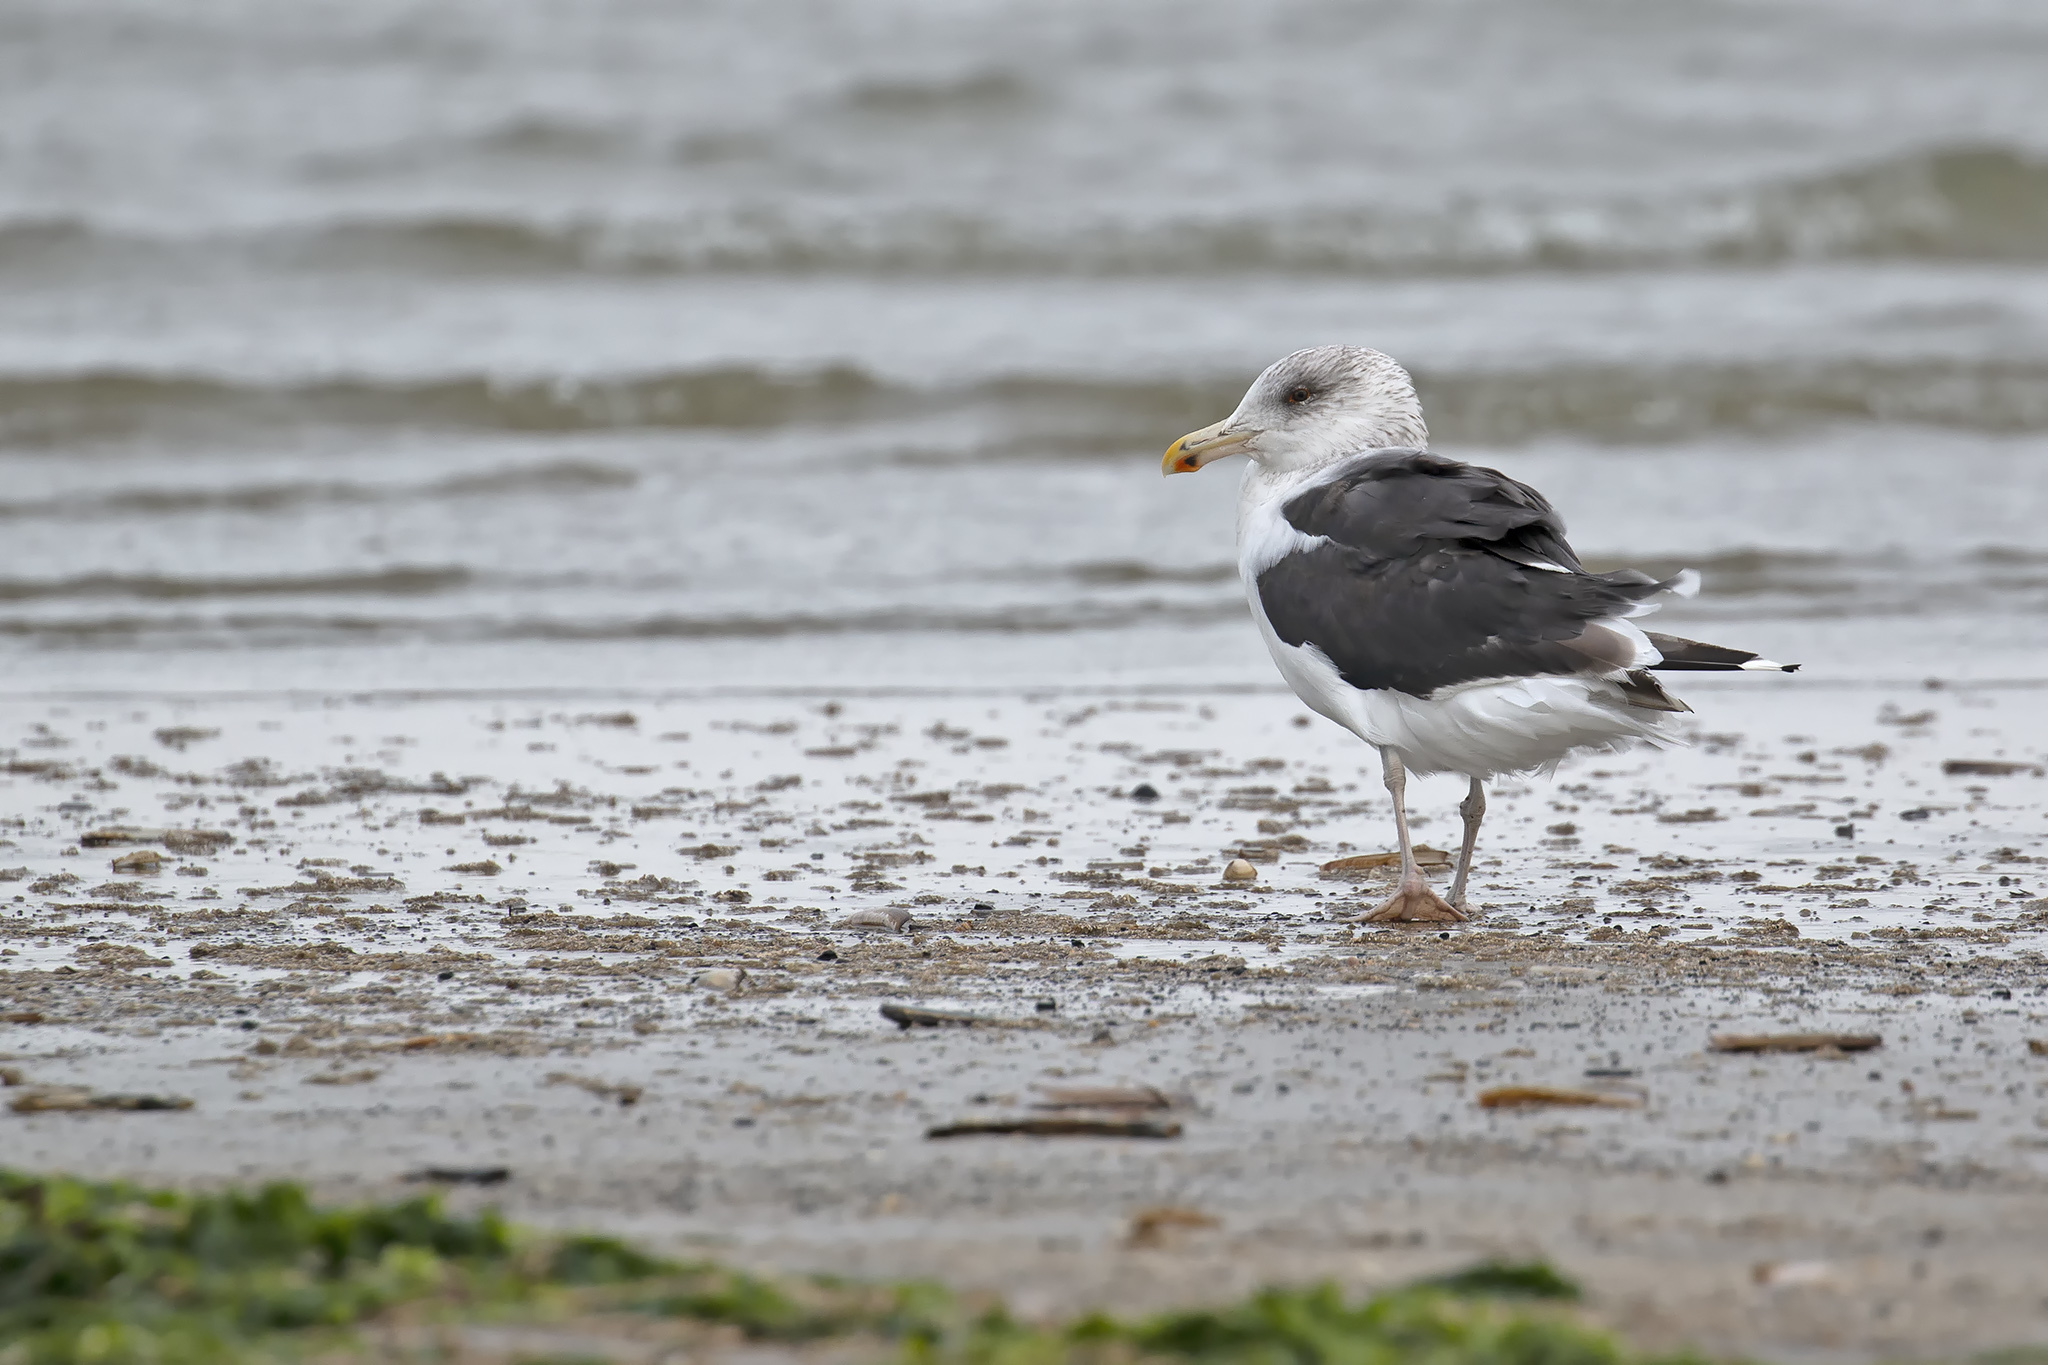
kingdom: Animalia
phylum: Chordata
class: Aves
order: Charadriiformes
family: Laridae
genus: Larus
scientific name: Larus fuscus
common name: Lesser black-backed gull
